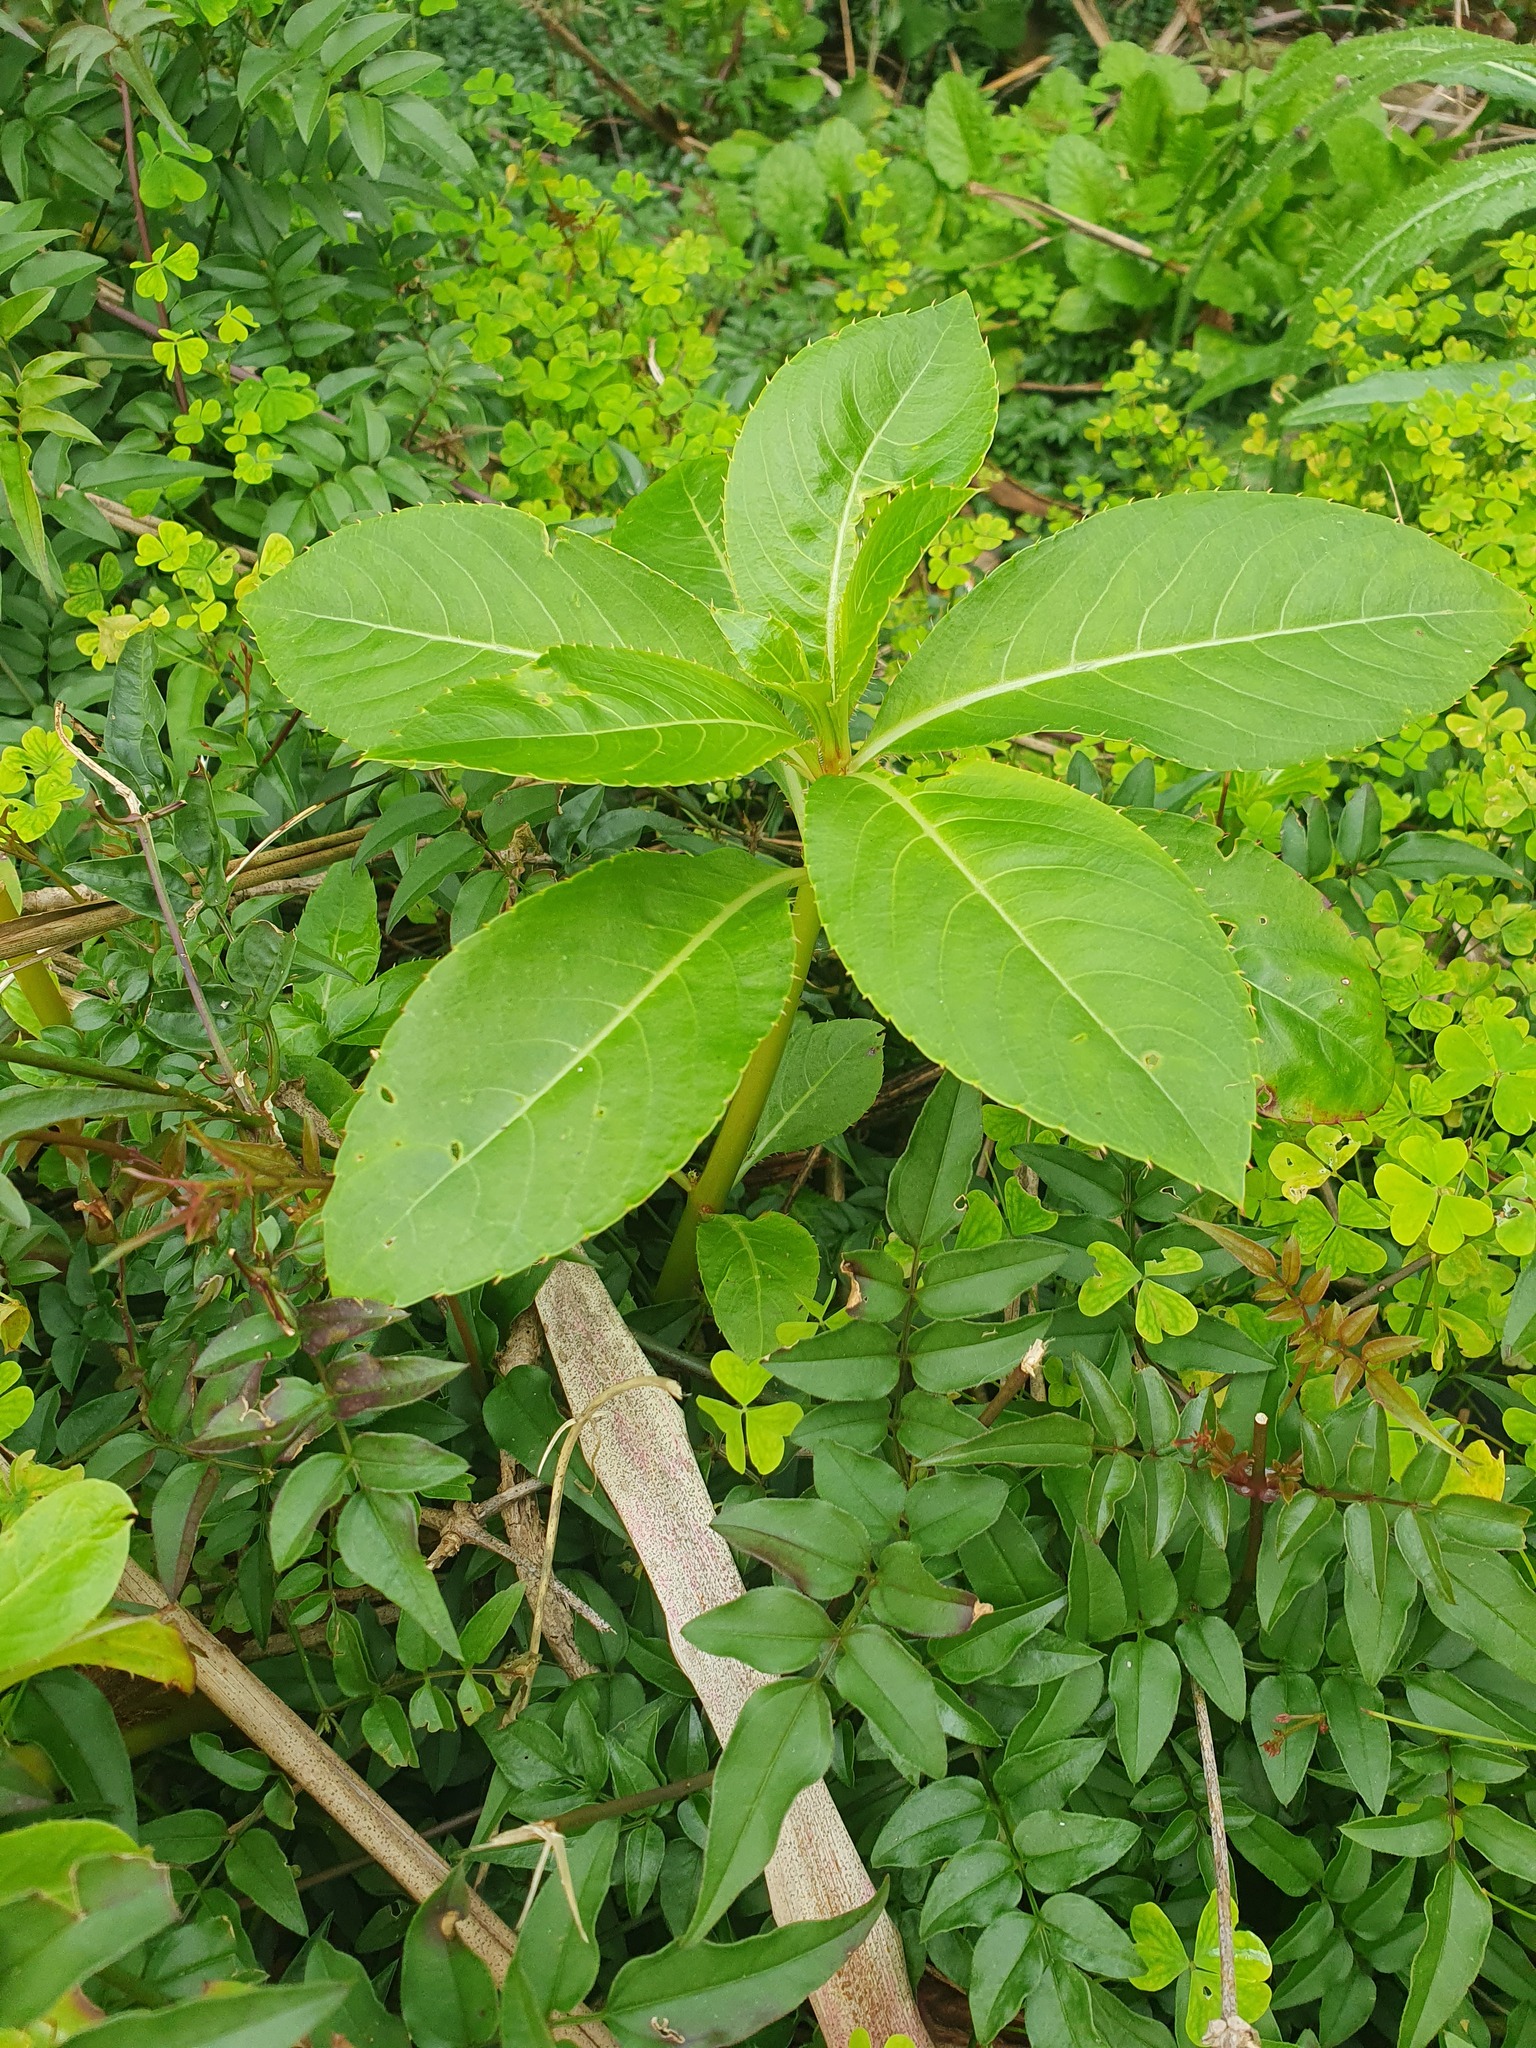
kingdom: Plantae
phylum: Tracheophyta
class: Magnoliopsida
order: Ericales
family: Balsaminaceae
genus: Impatiens
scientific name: Impatiens sodenii
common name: Oliver's touch-me-not
